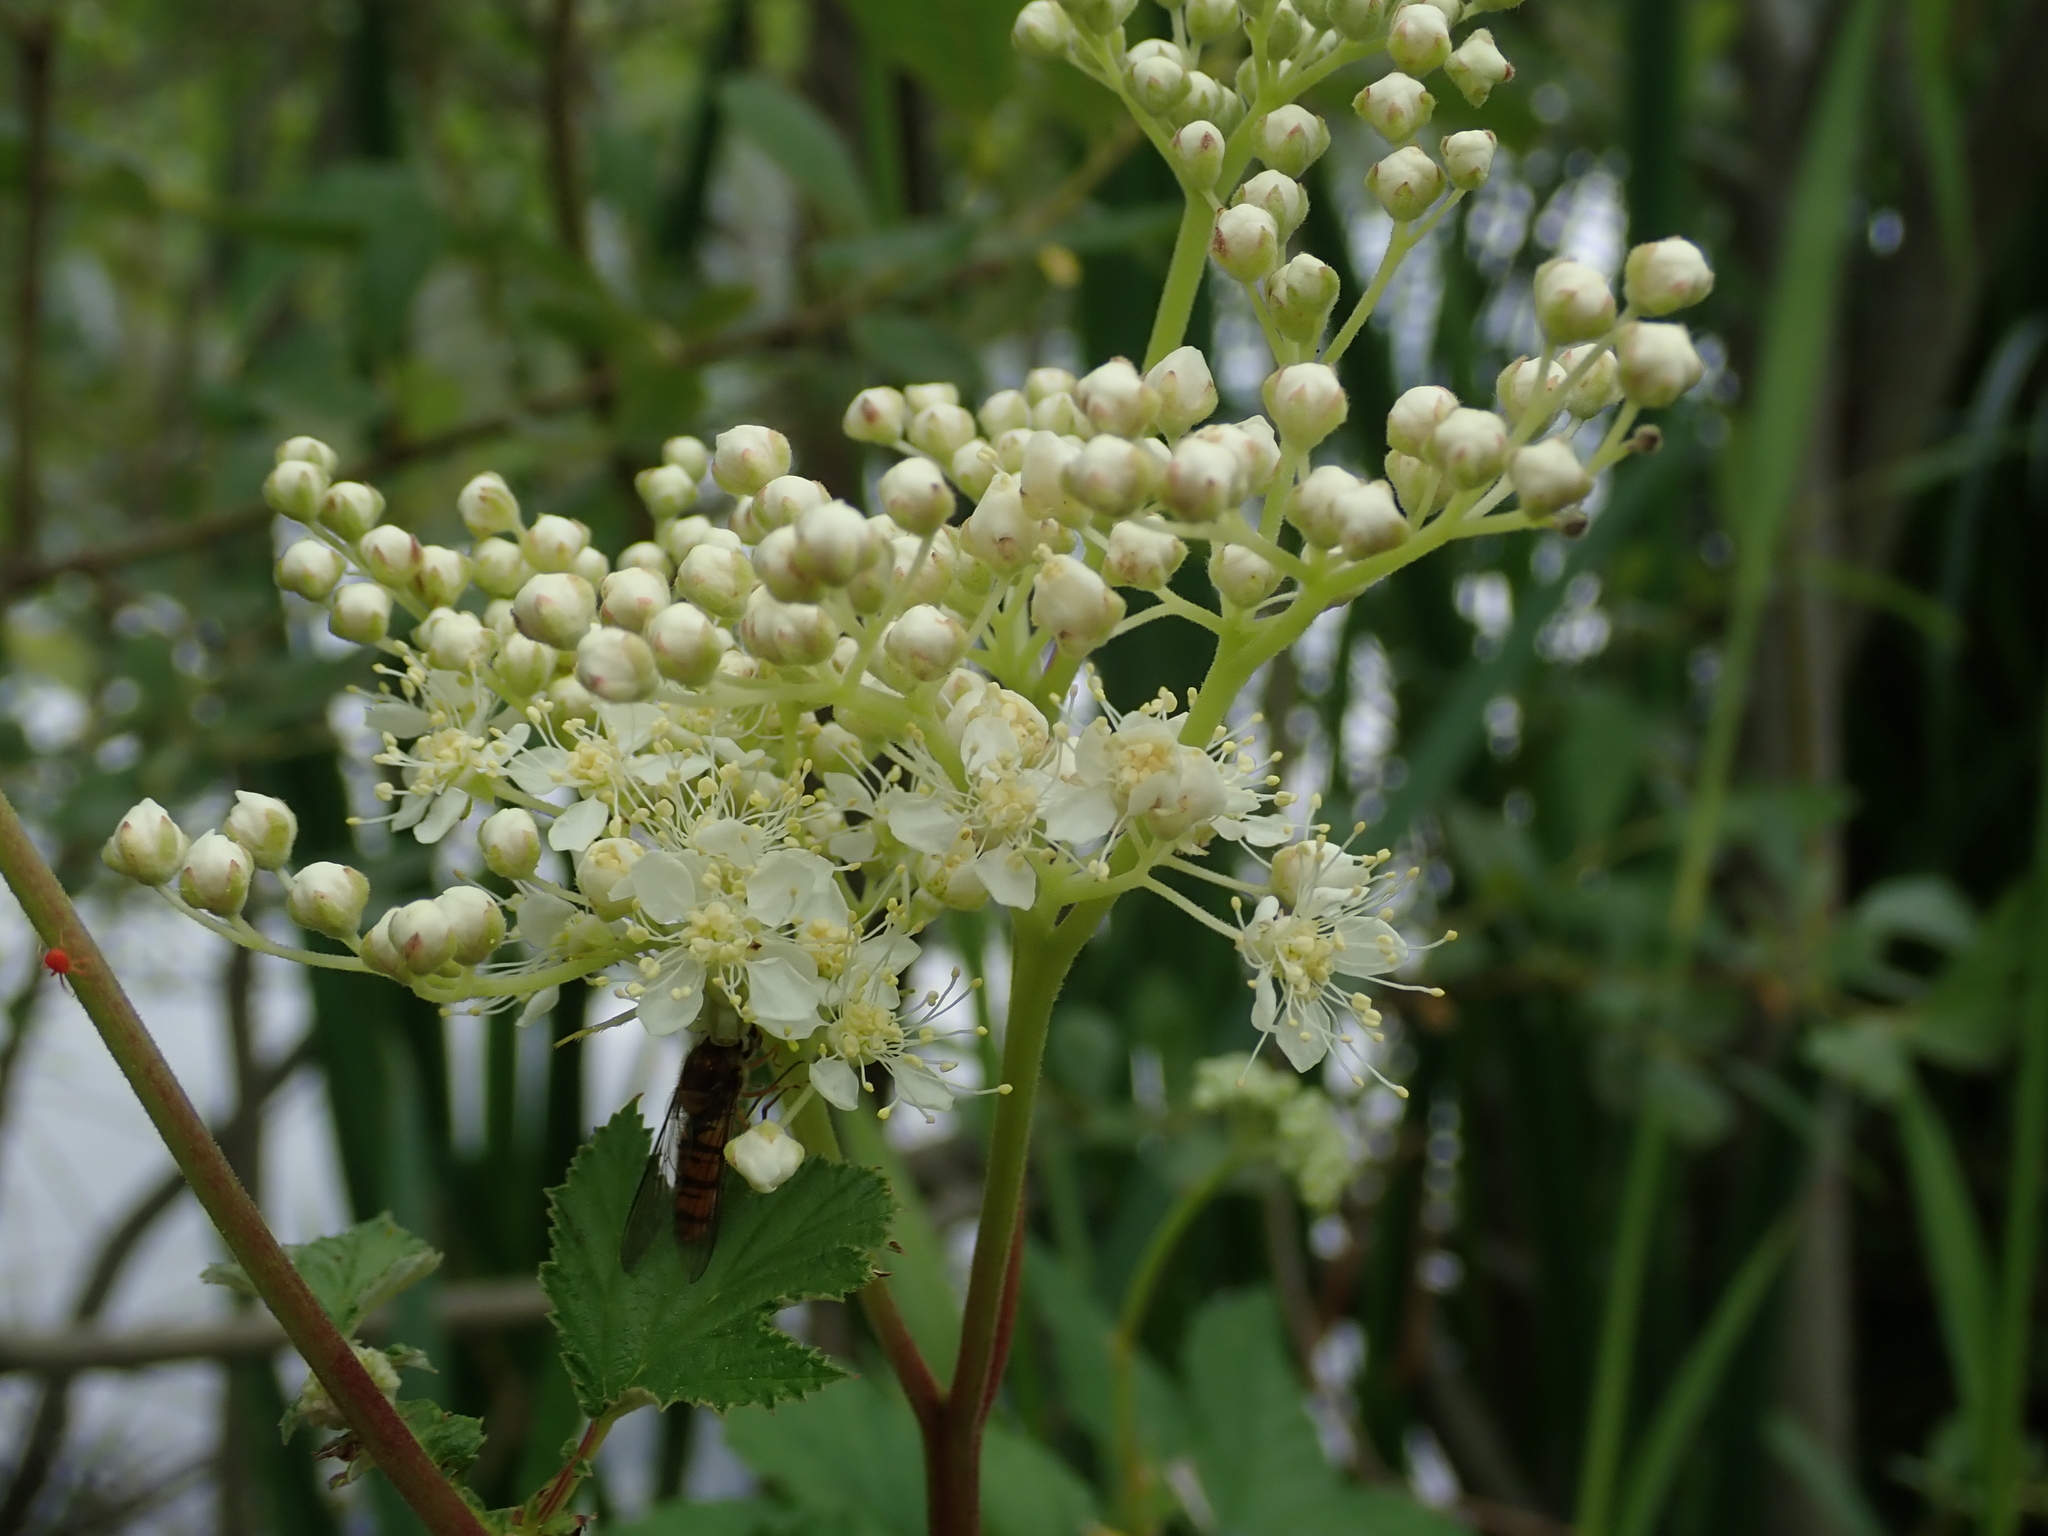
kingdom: Plantae
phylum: Tracheophyta
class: Magnoliopsida
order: Rosales
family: Rosaceae
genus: Filipendula
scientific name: Filipendula ulmaria
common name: Meadowsweet
